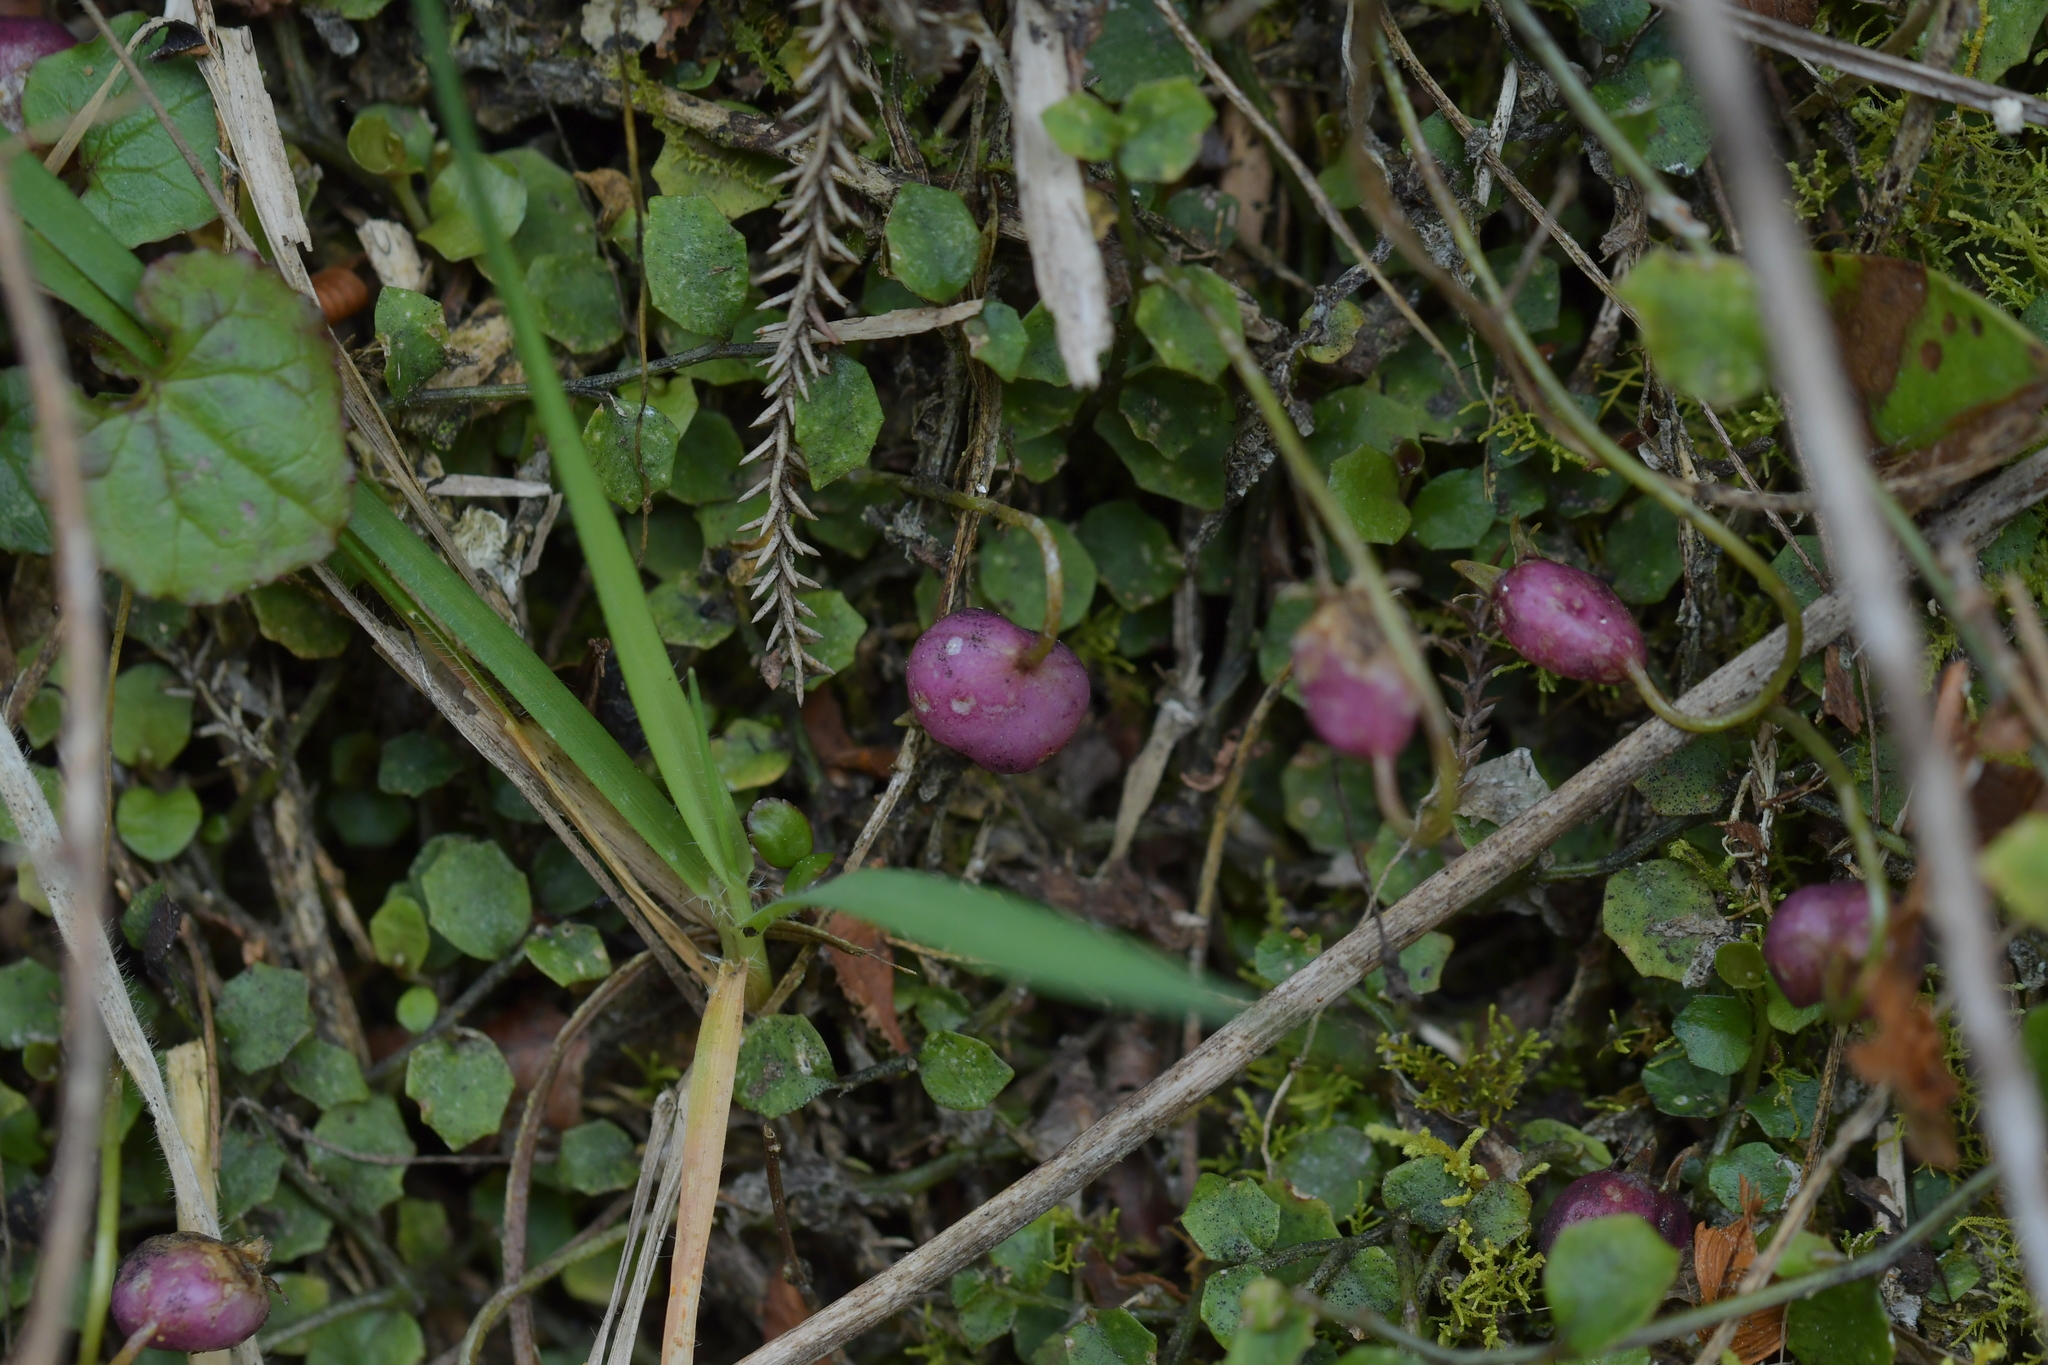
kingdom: Plantae
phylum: Tracheophyta
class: Magnoliopsida
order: Asterales
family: Campanulaceae
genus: Lobelia
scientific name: Lobelia angulata
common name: Lawn lobelia
